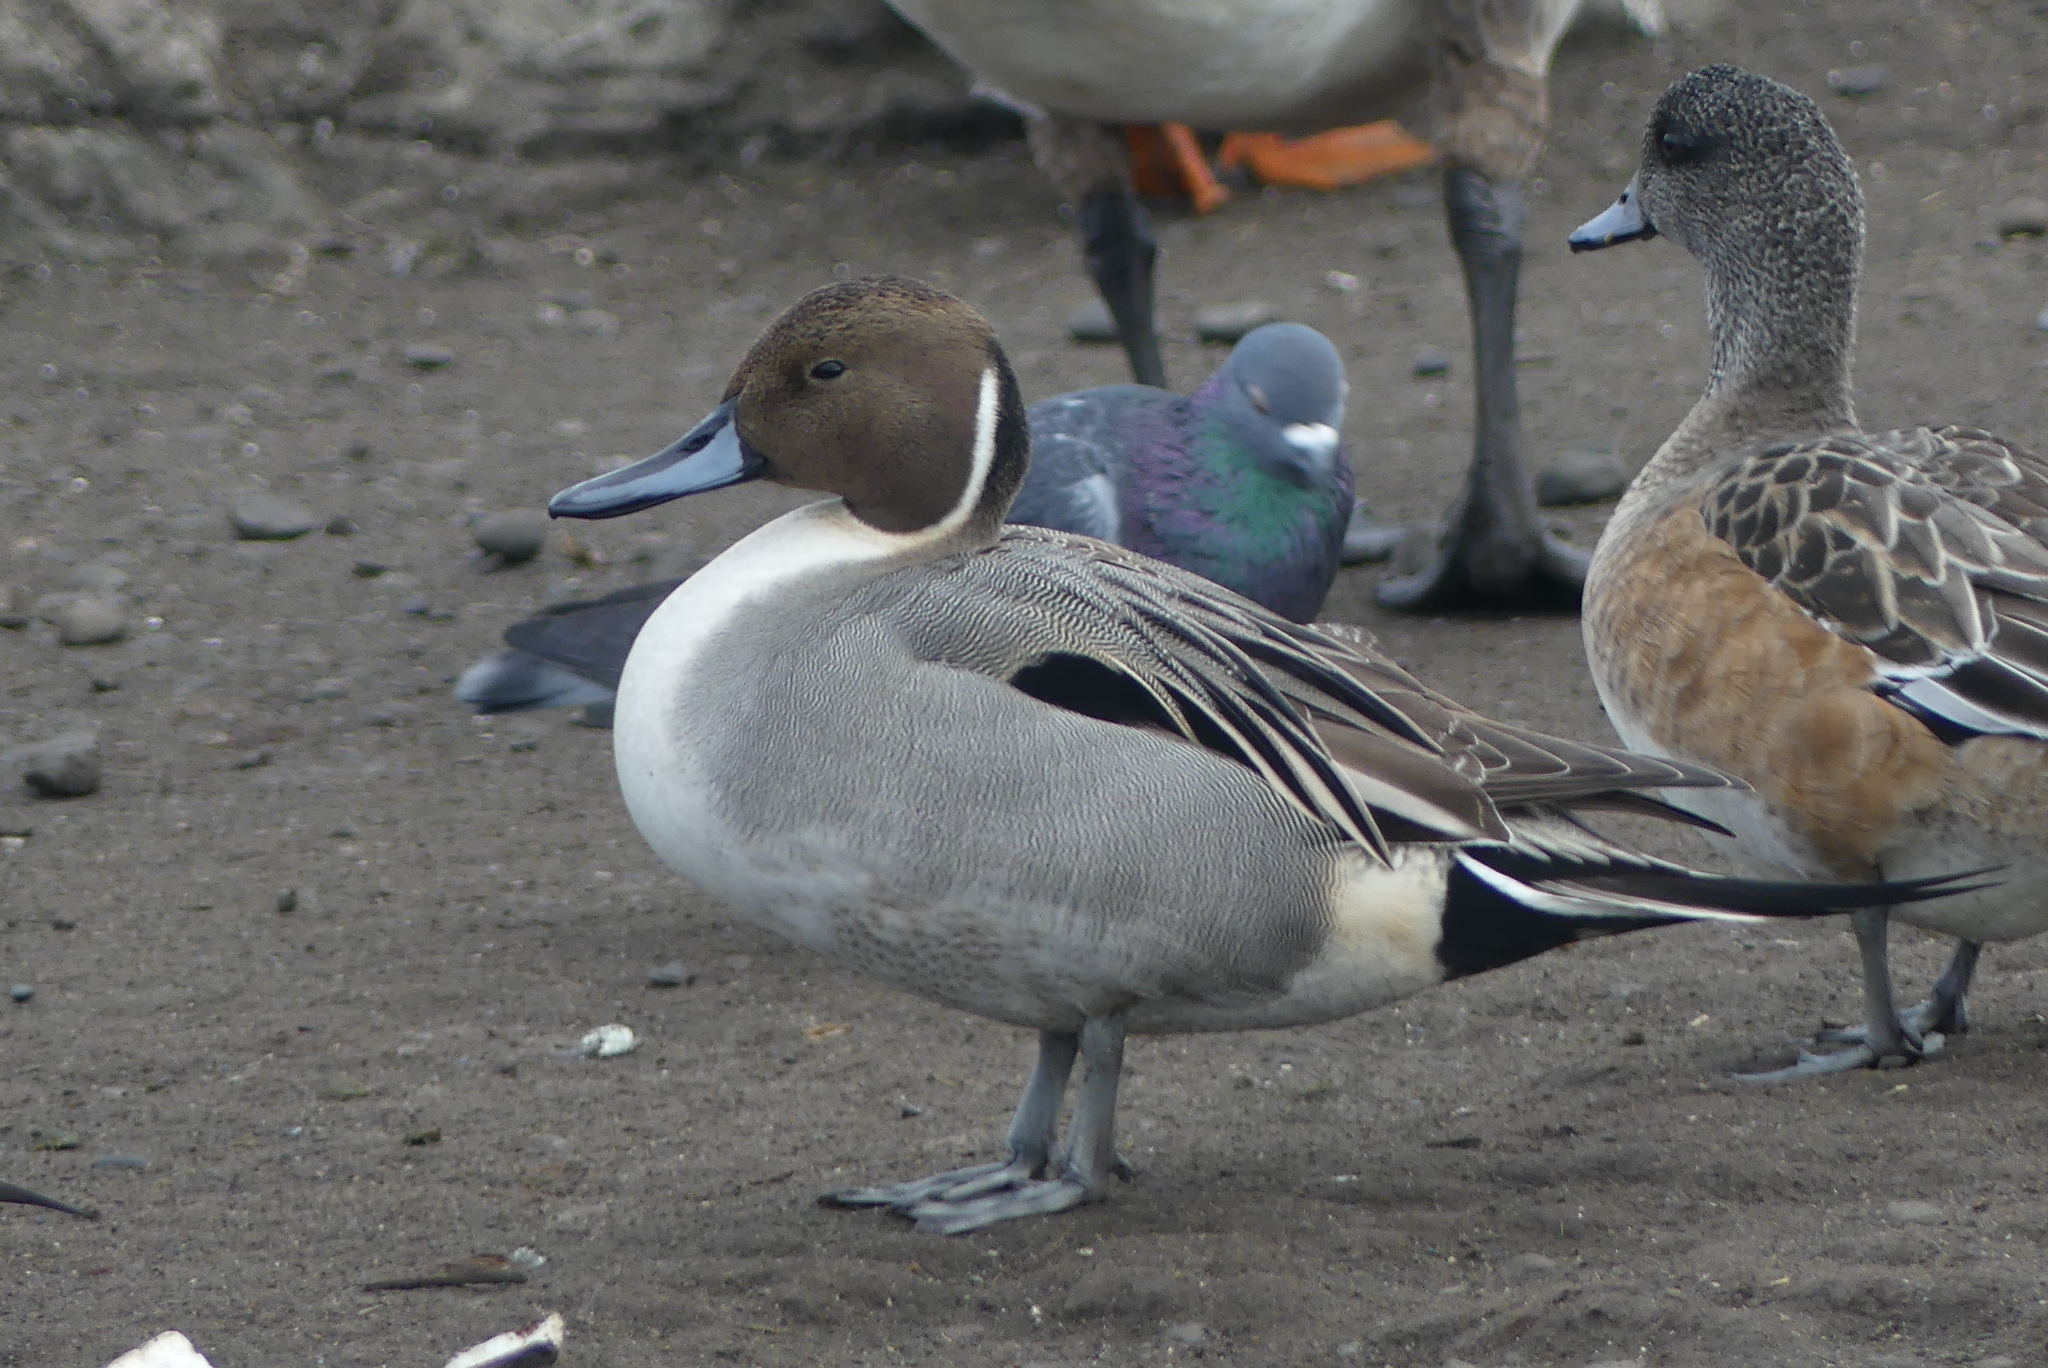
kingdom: Animalia
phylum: Chordata
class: Aves
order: Anseriformes
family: Anatidae
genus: Anas
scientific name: Anas acuta
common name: Northern pintail
